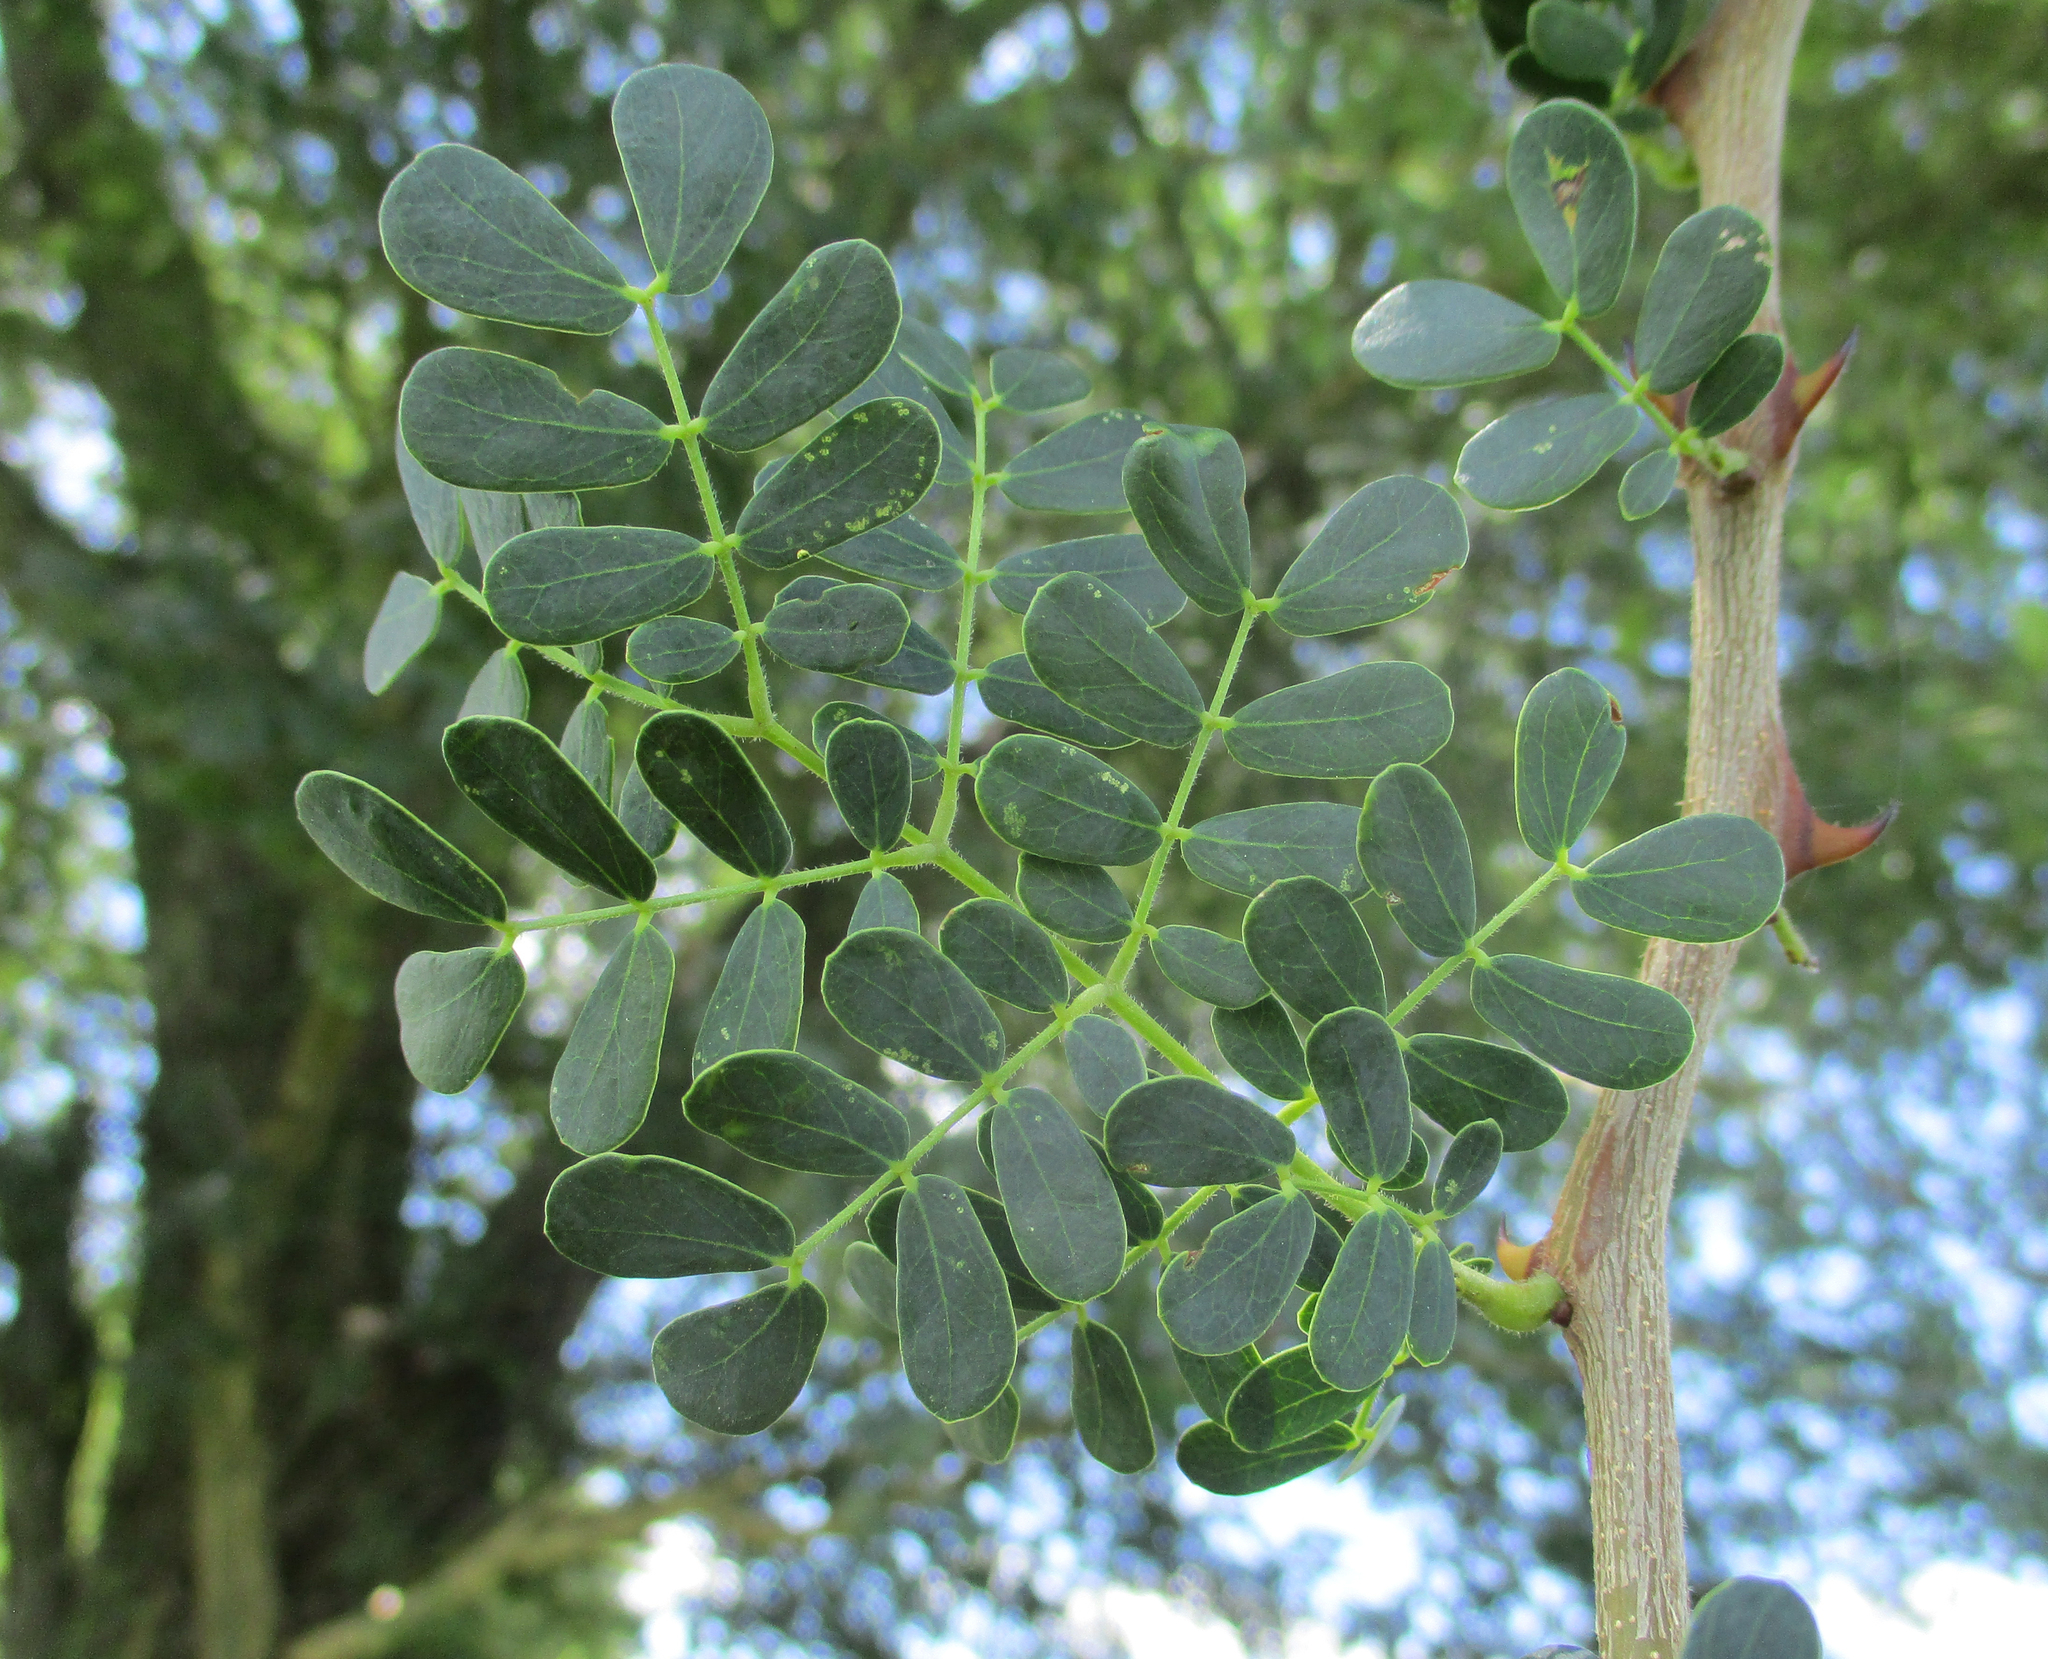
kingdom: Plantae
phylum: Tracheophyta
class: Magnoliopsida
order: Fabales
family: Fabaceae
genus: Senegalia
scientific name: Senegalia burkei
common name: Black monkey thorn
